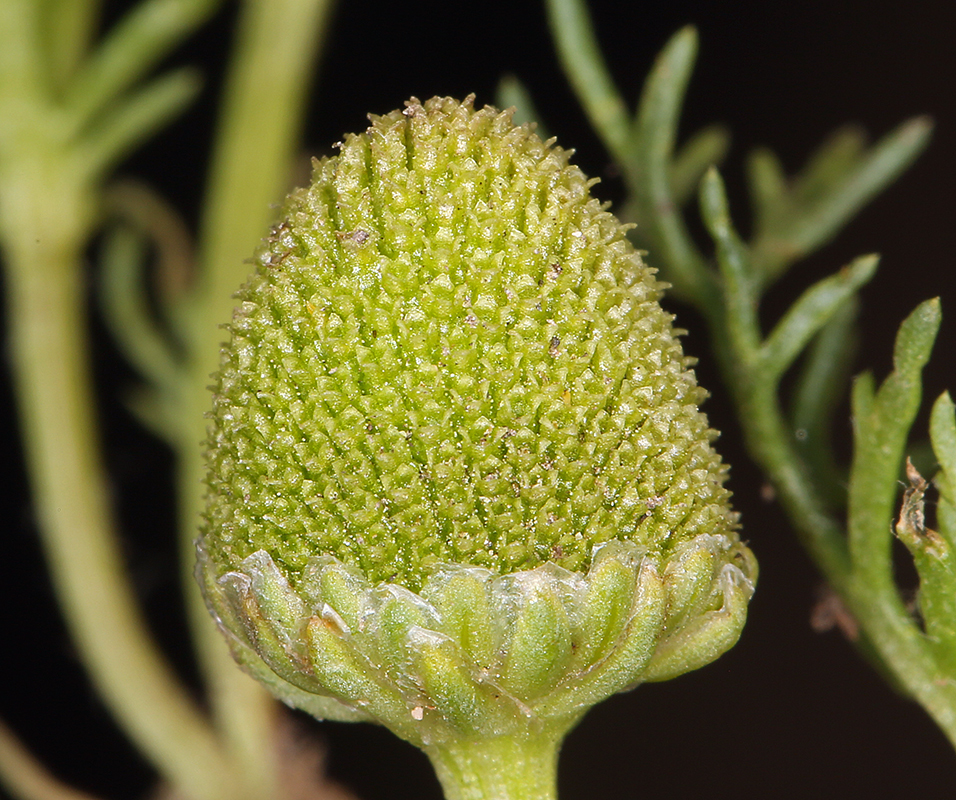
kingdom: Plantae
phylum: Tracheophyta
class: Magnoliopsida
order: Asterales
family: Asteraceae
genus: Matricaria
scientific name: Matricaria occidentalis
